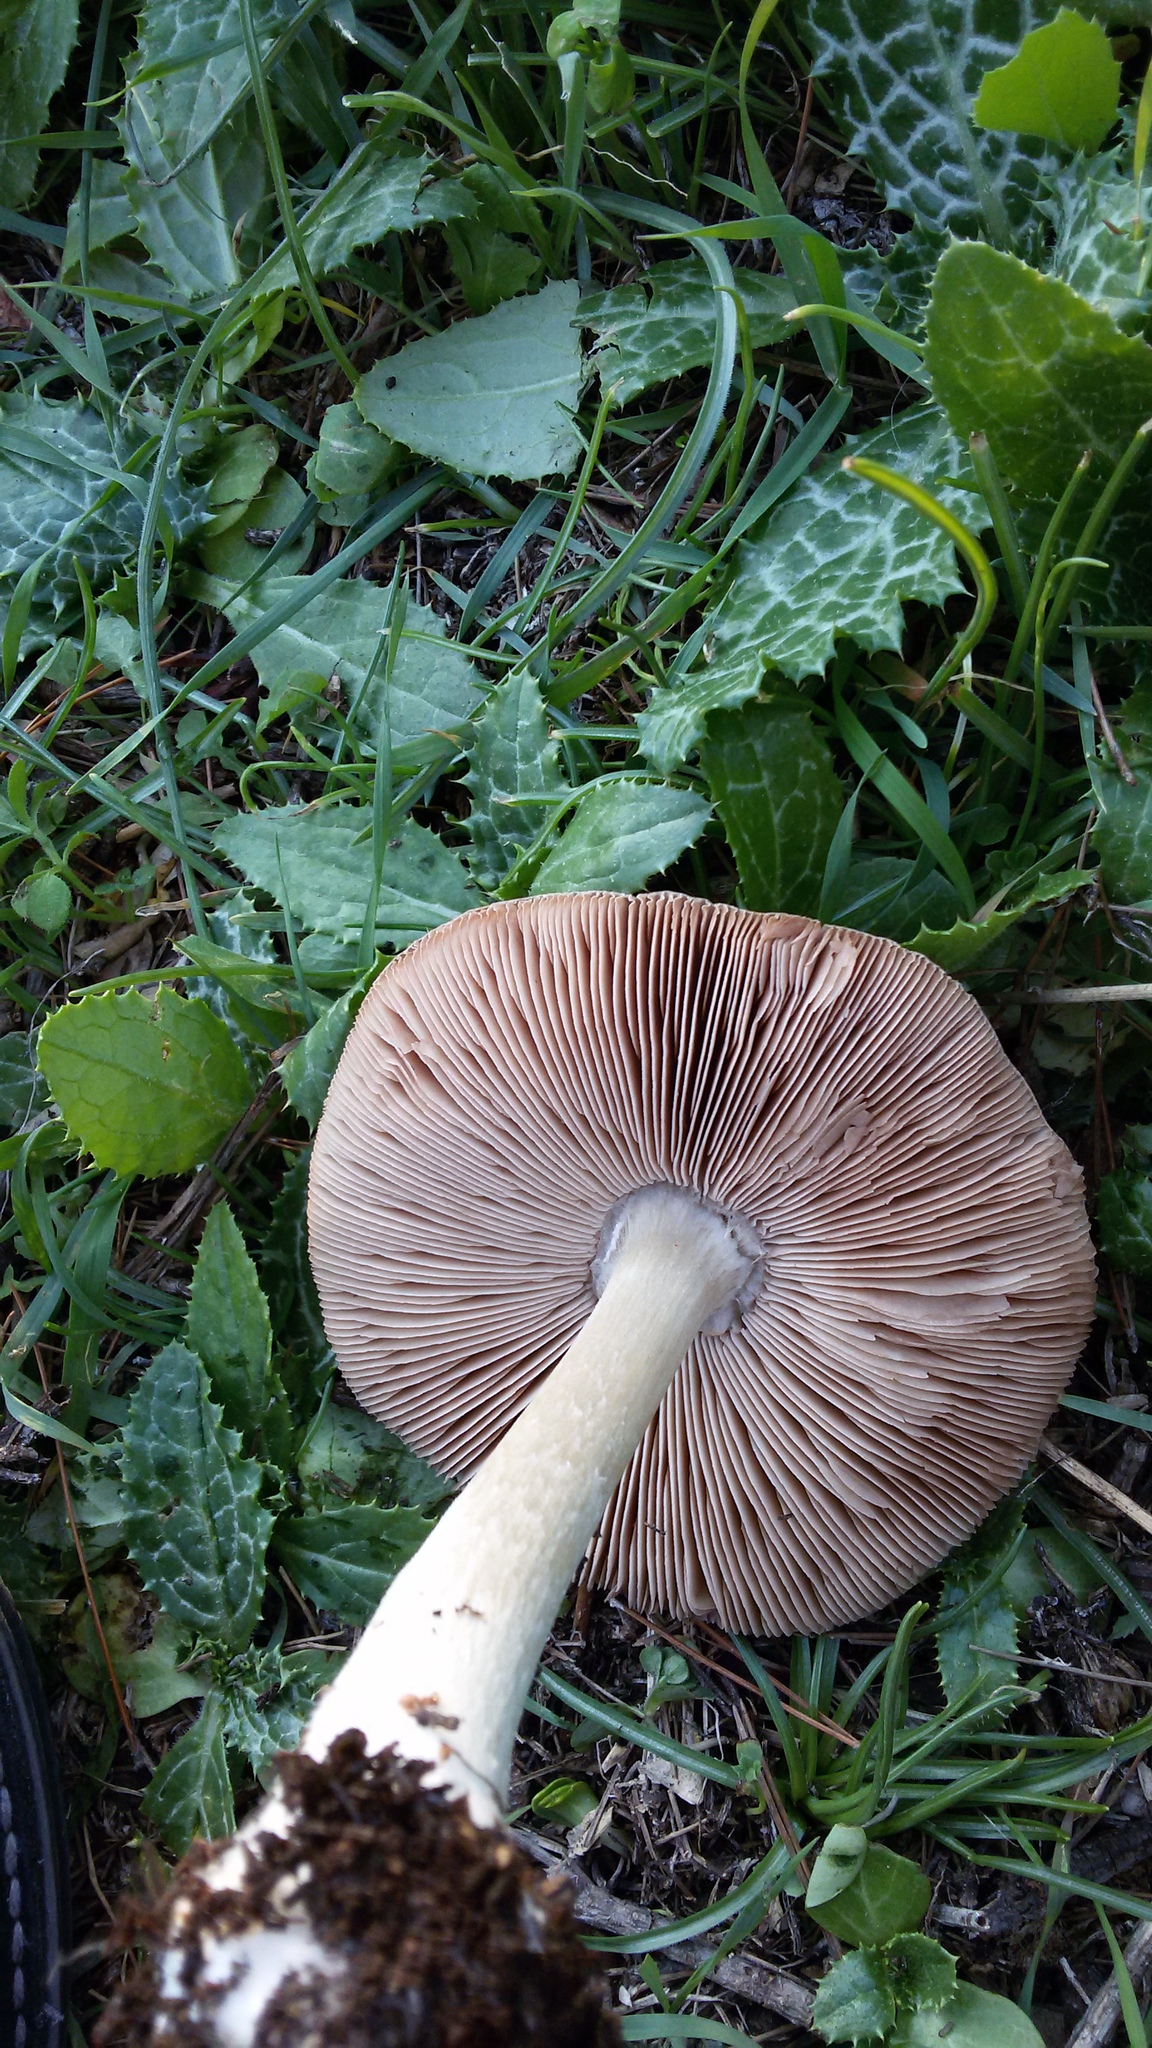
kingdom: Fungi
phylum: Basidiomycota
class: Agaricomycetes
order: Agaricales
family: Pluteaceae
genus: Volvopluteus
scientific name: Volvopluteus gloiocephalus
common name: Stubble rosegill
